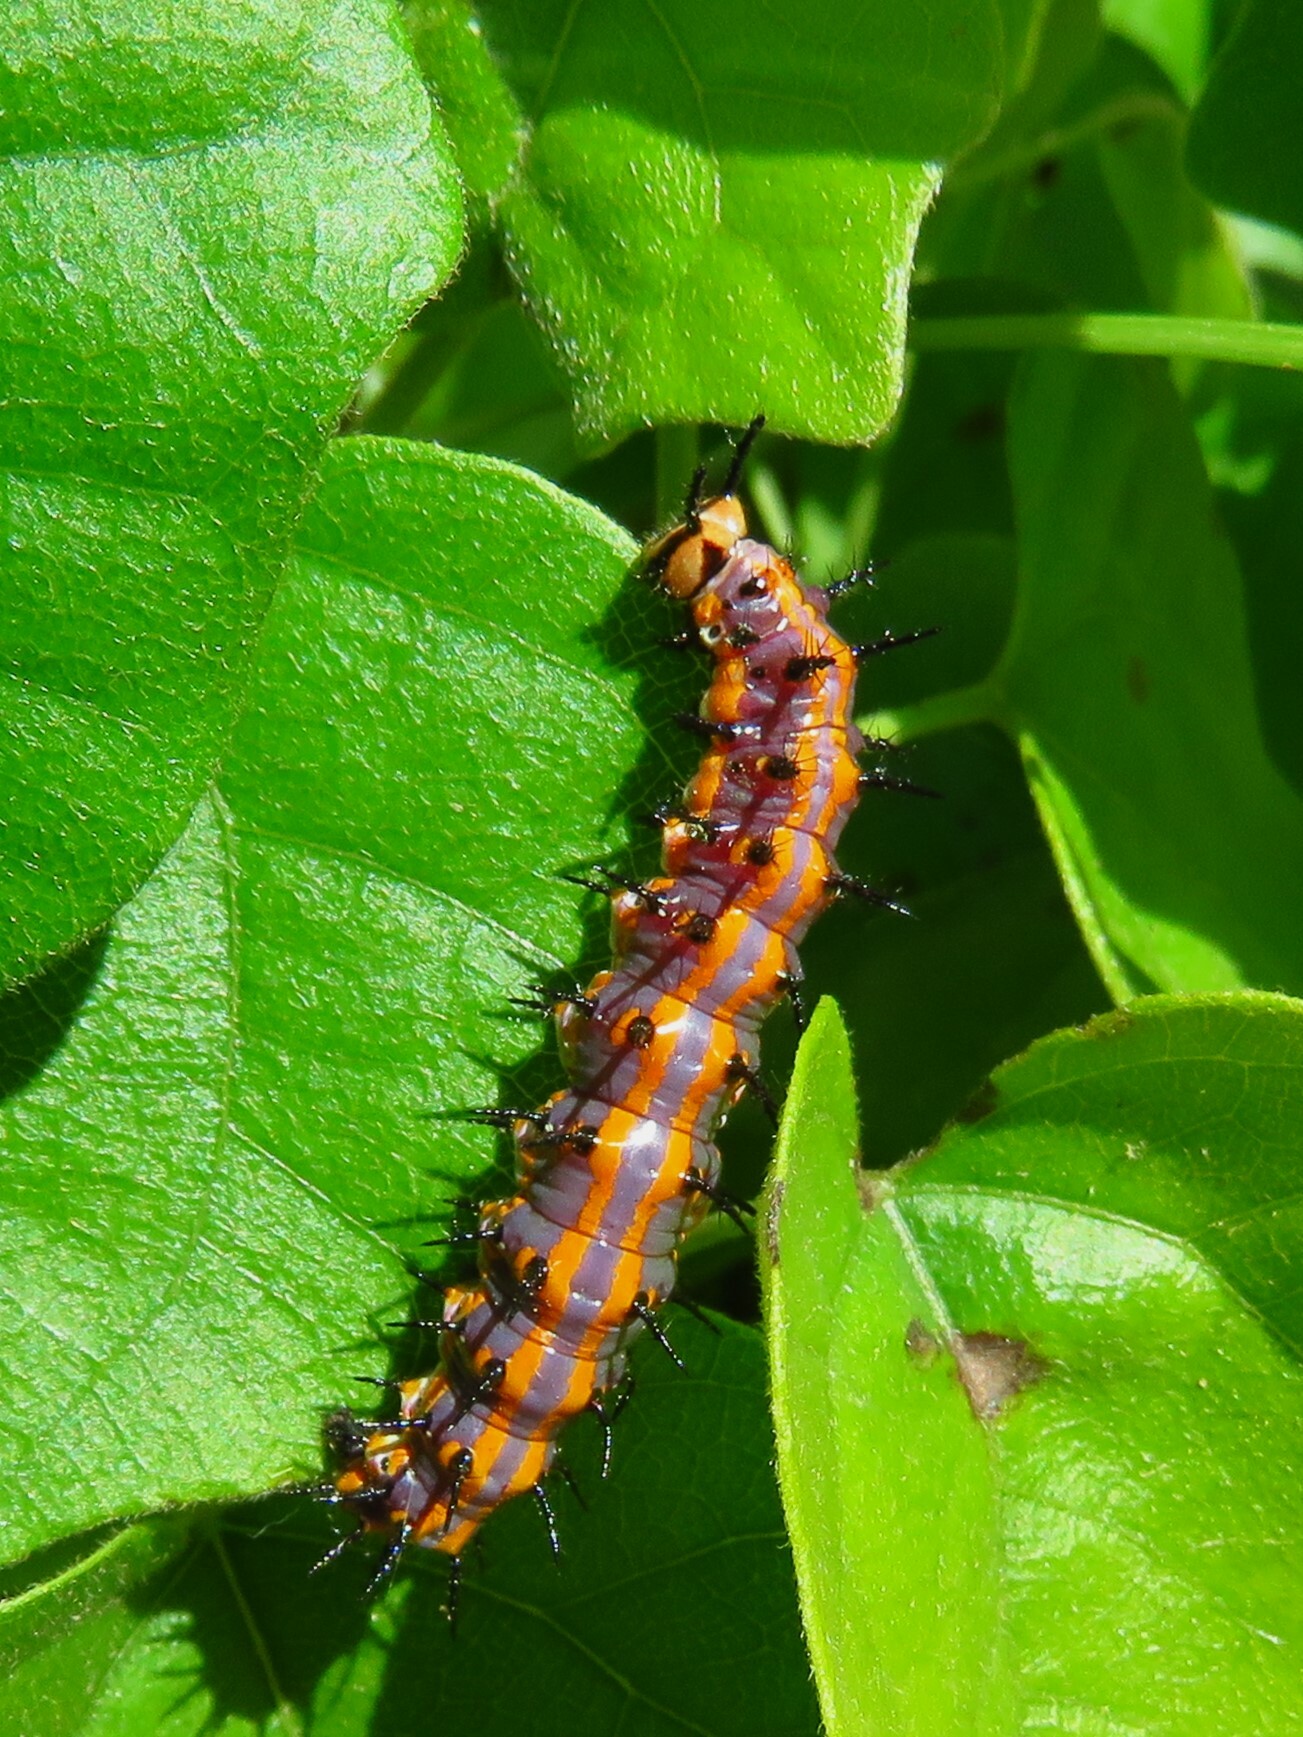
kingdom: Animalia
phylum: Arthropoda
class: Insecta
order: Lepidoptera
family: Nymphalidae
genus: Dione
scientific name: Dione vanillae
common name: Gulf fritillary
